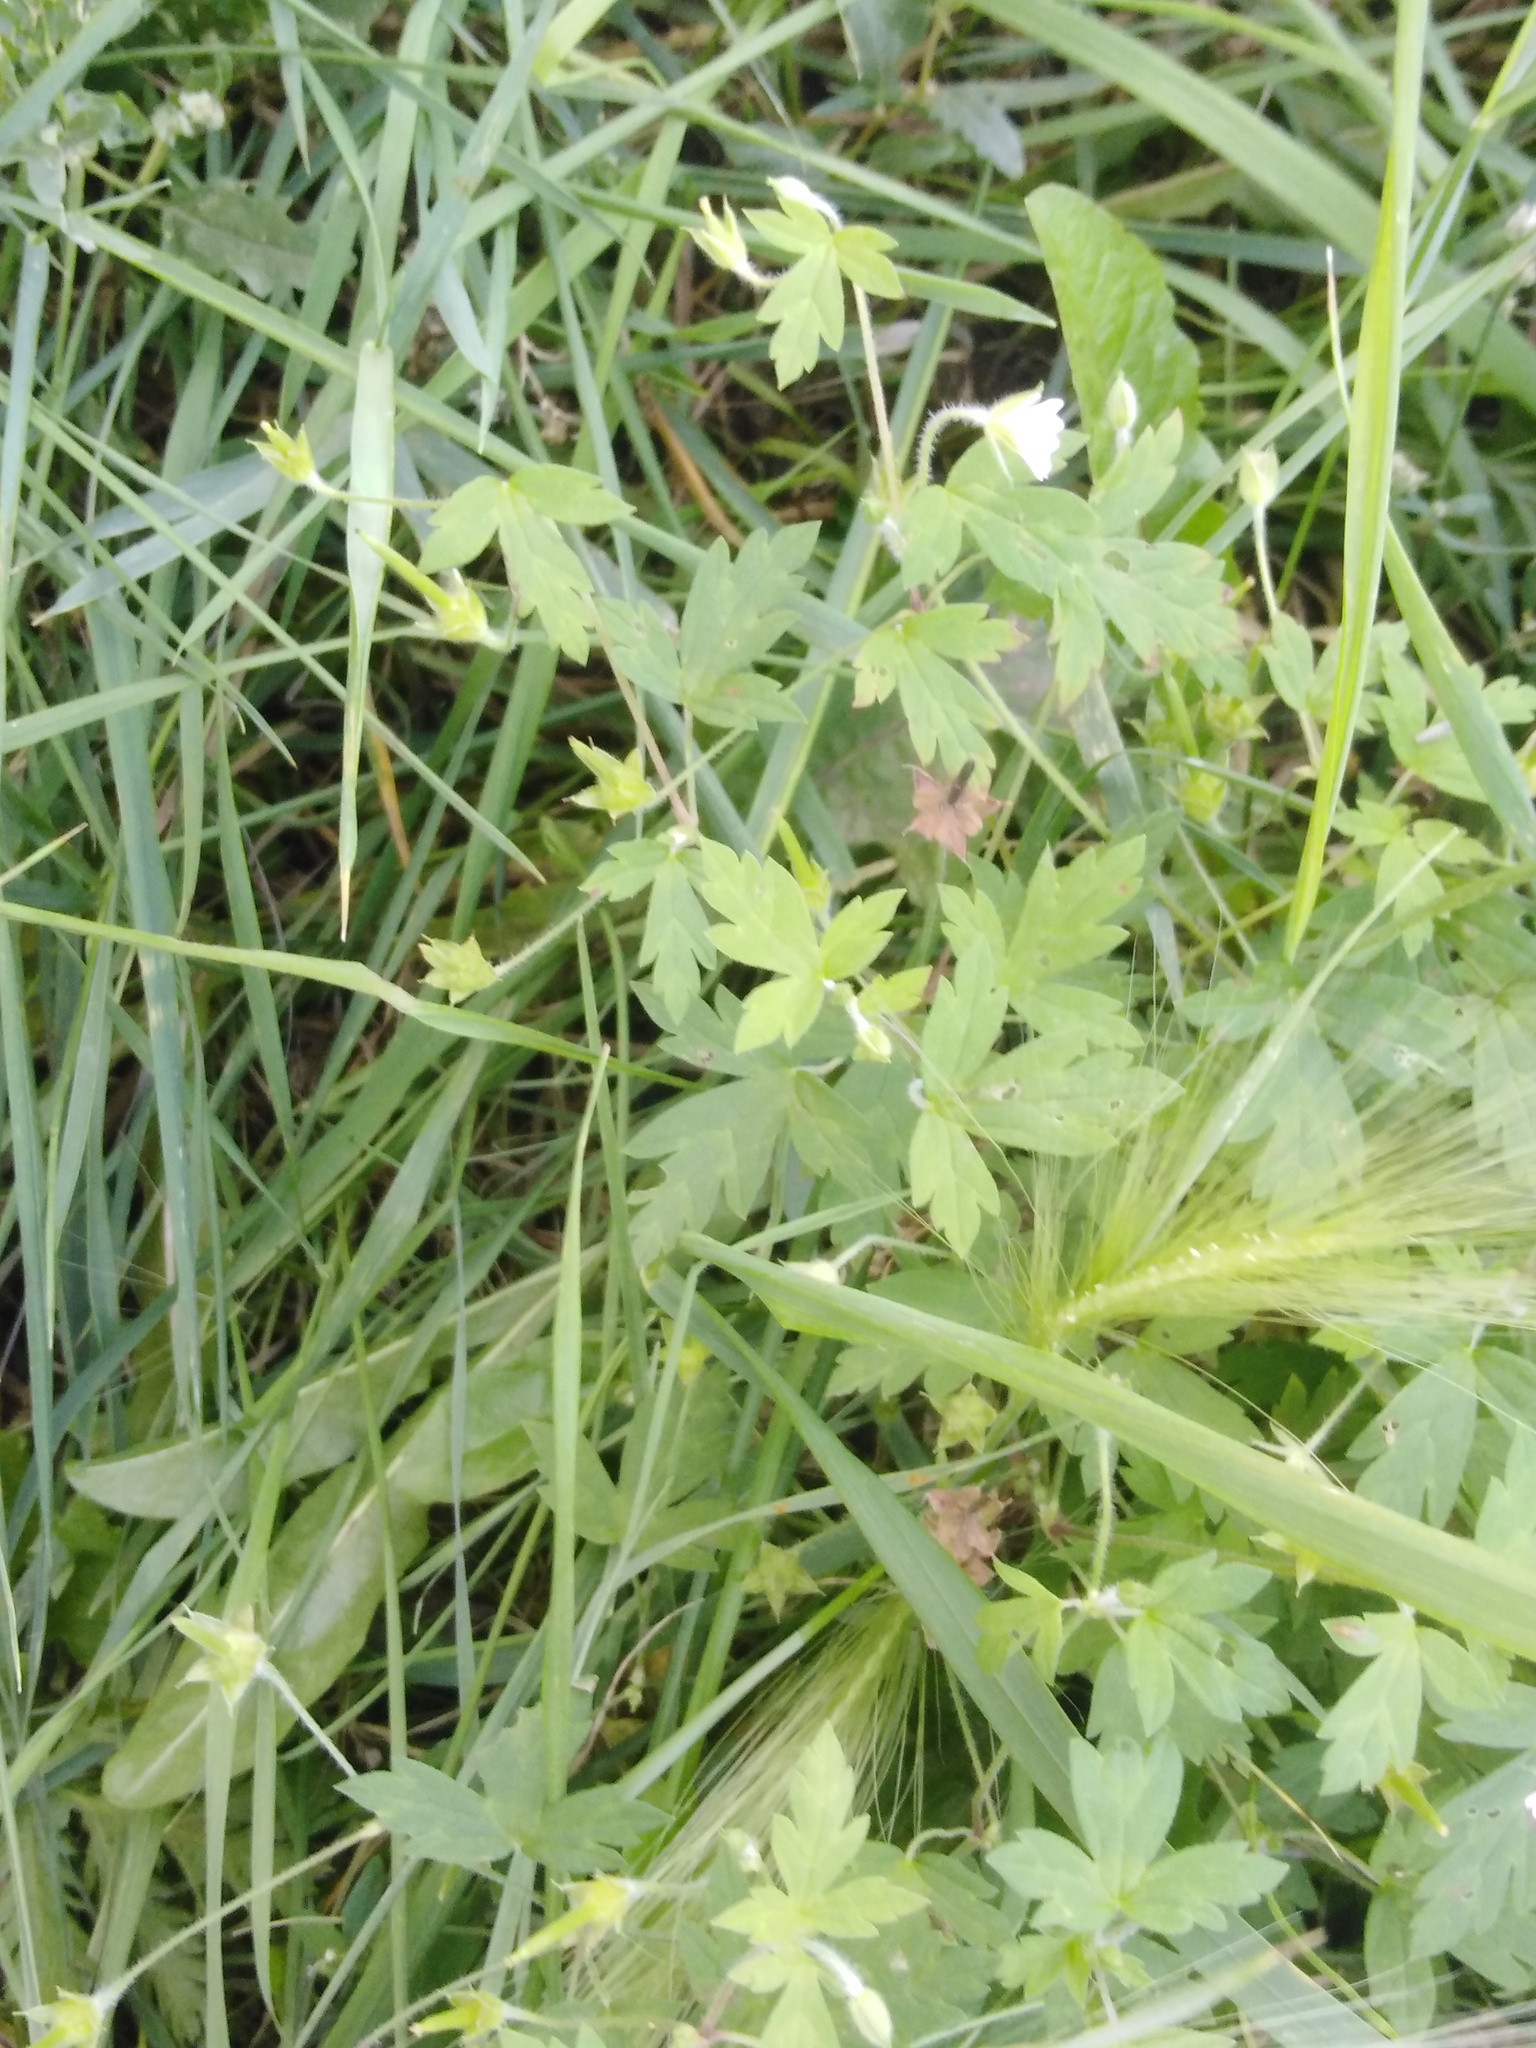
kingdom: Plantae
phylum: Tracheophyta
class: Magnoliopsida
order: Geraniales
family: Geraniaceae
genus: Geranium
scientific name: Geranium sibiricum
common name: Siberian crane's-bill
